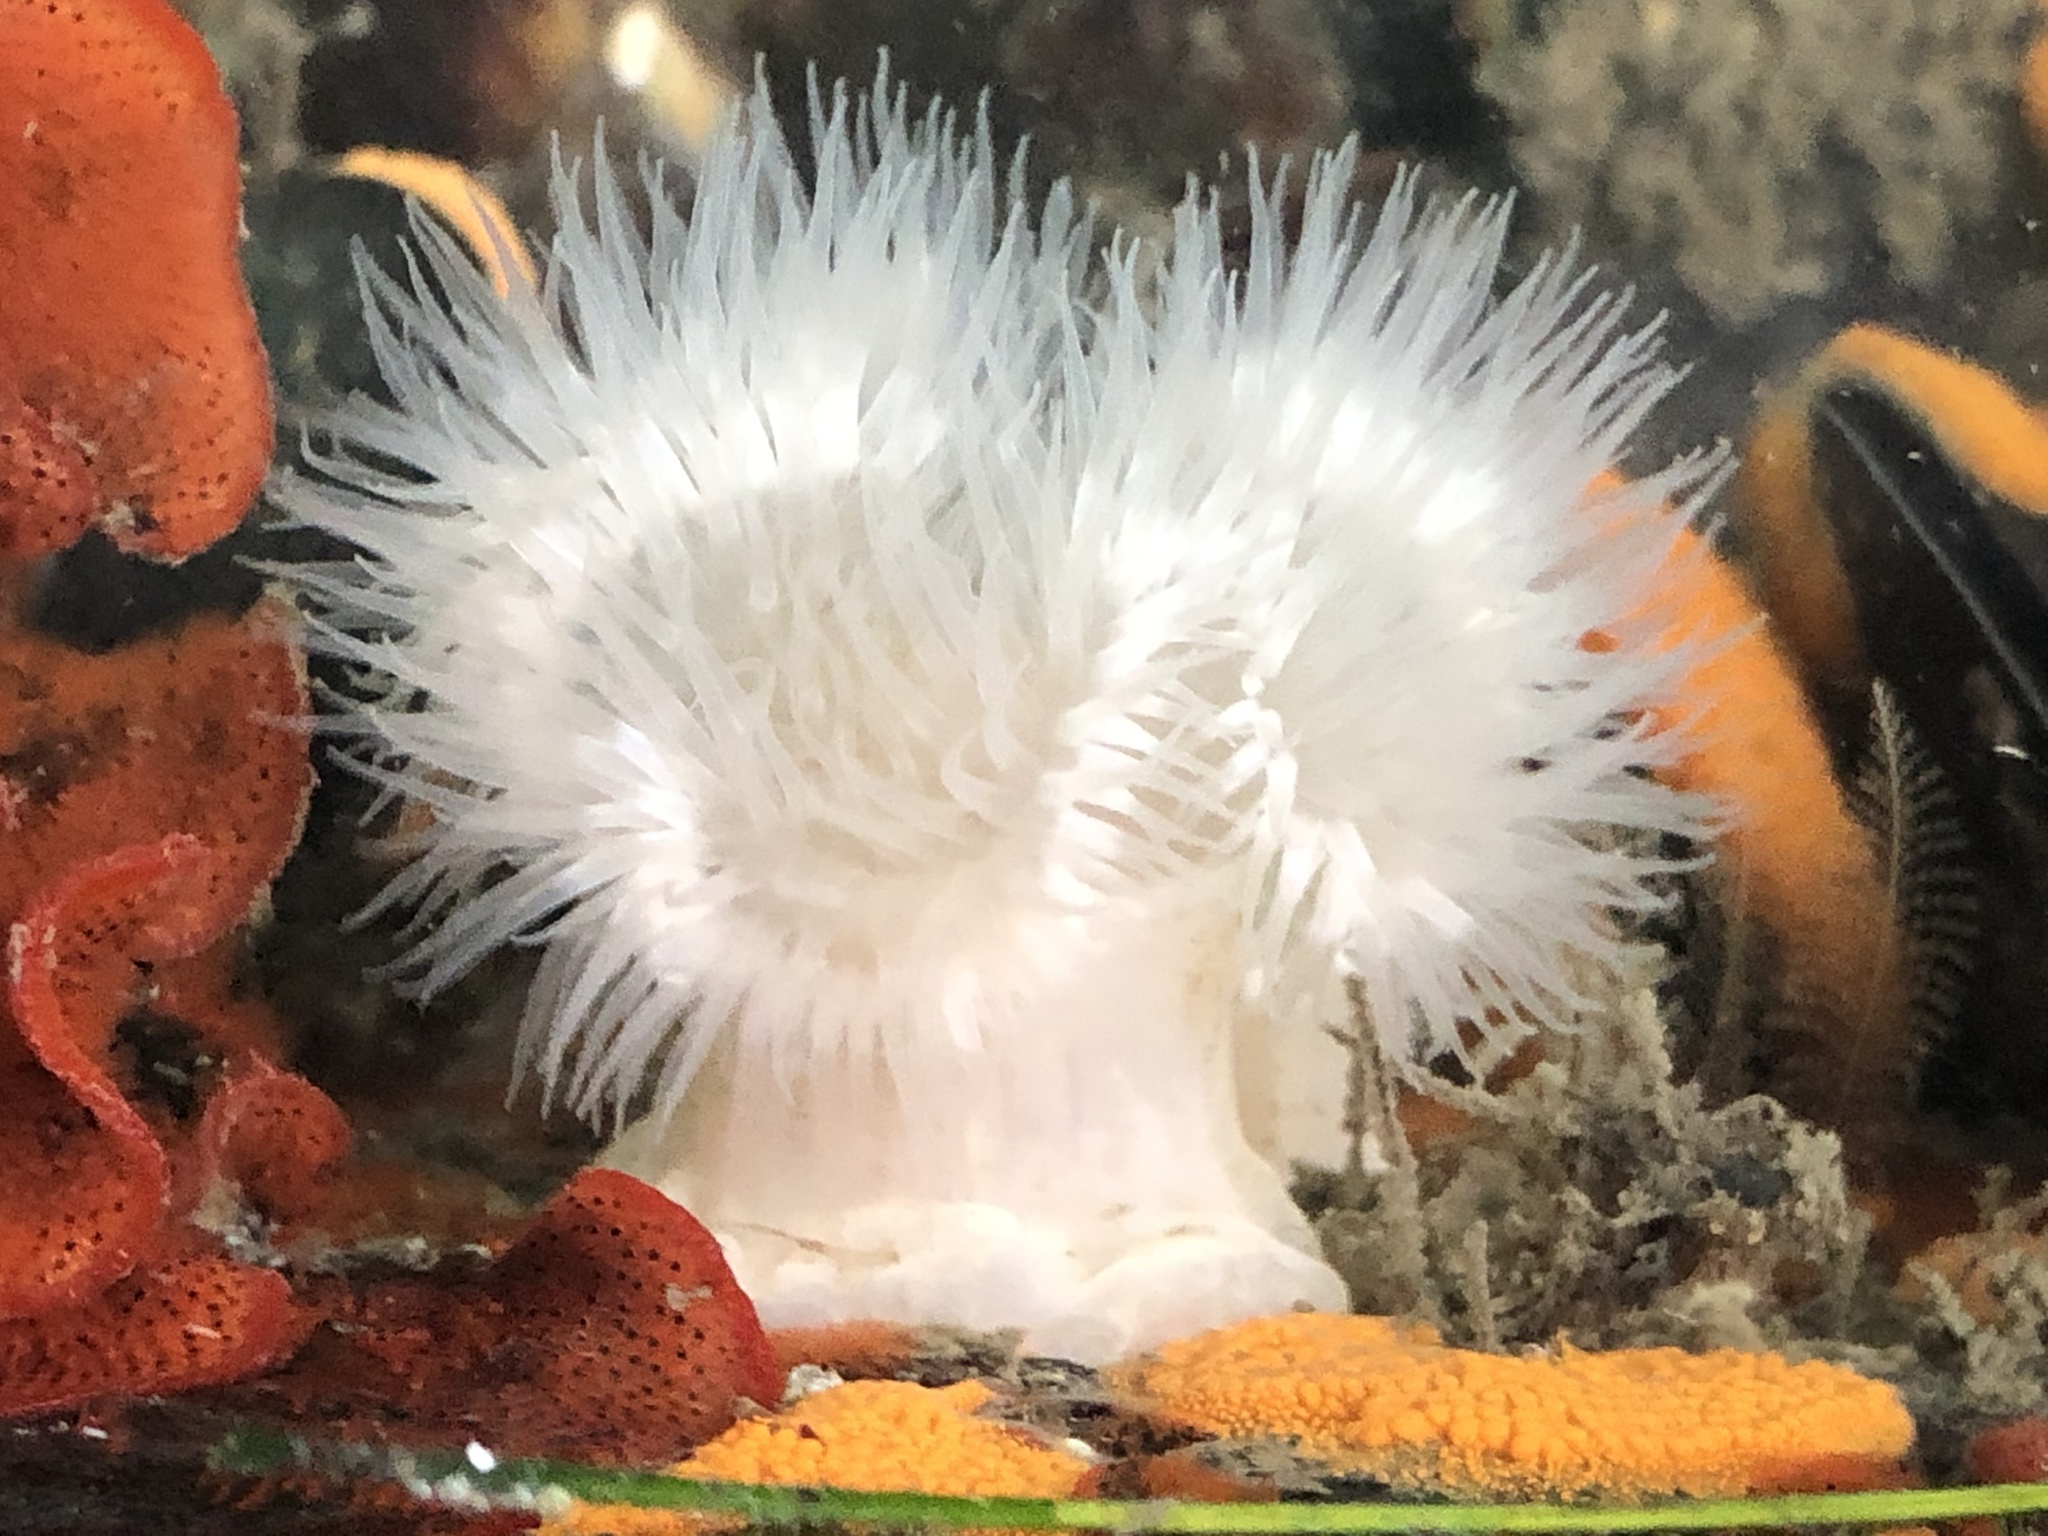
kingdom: Animalia
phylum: Cnidaria
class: Anthozoa
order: Actiniaria
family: Metridiidae
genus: Metridium
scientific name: Metridium senile
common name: Clonal plumose anemone
